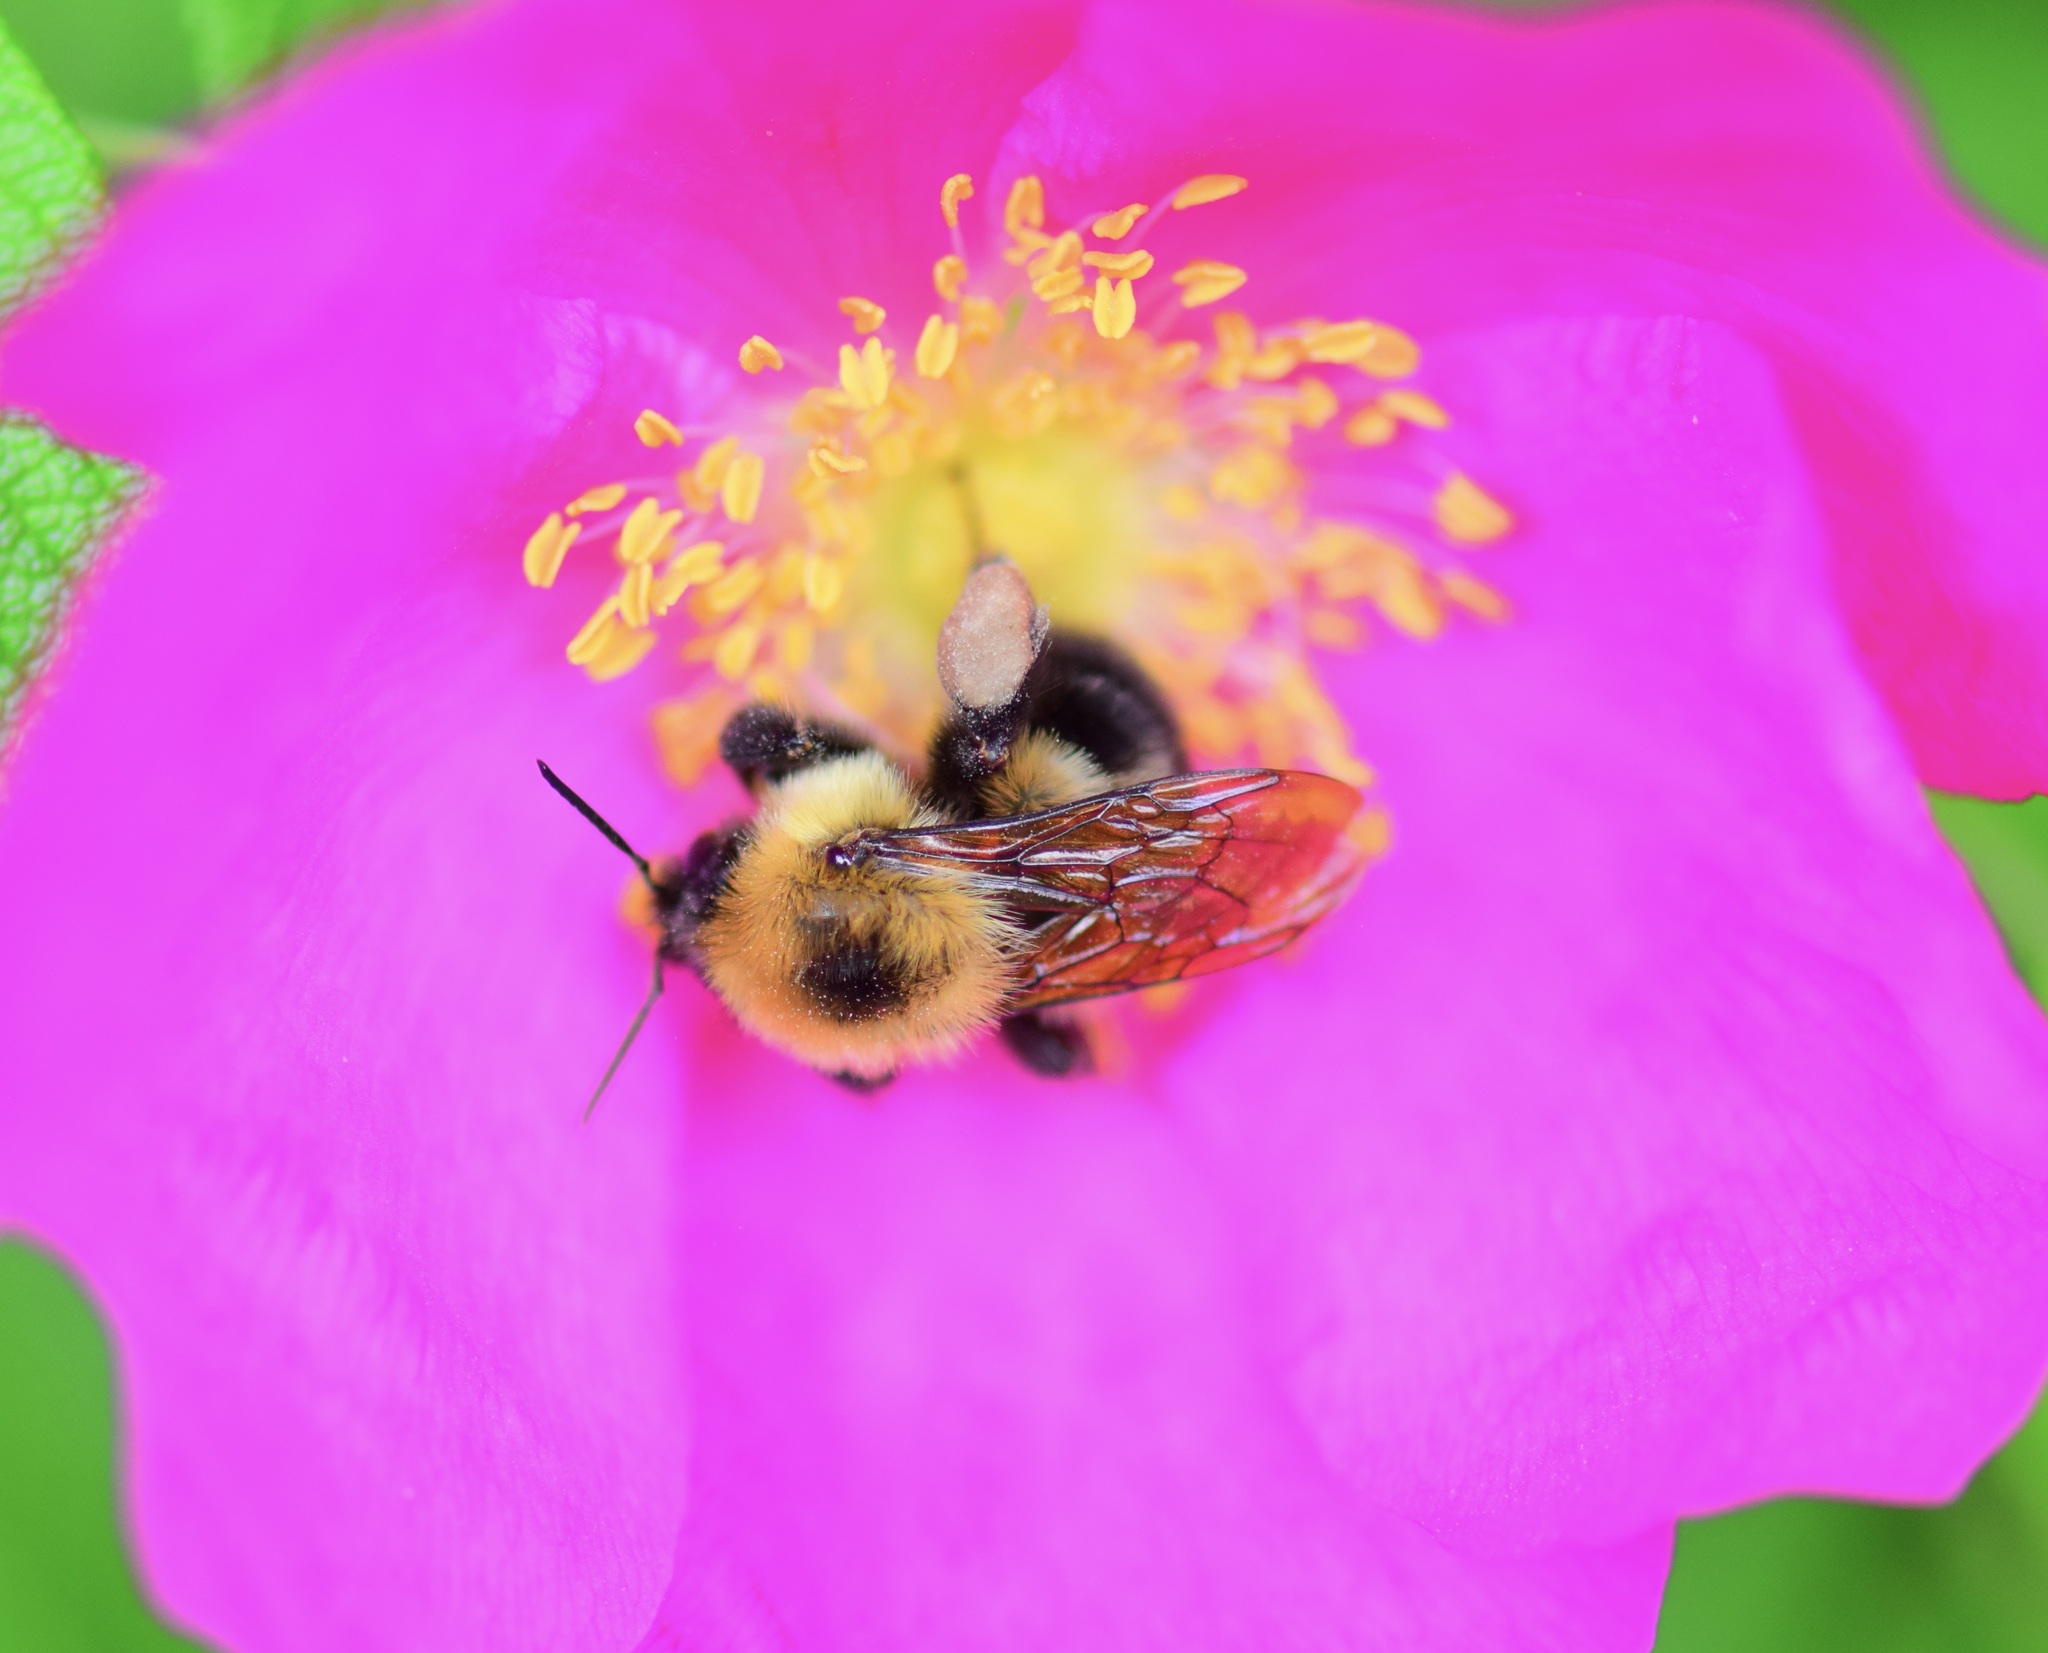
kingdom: Animalia
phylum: Arthropoda
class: Insecta
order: Hymenoptera
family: Apidae
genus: Bombus
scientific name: Bombus bimaculatus
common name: Two-spotted bumble bee
